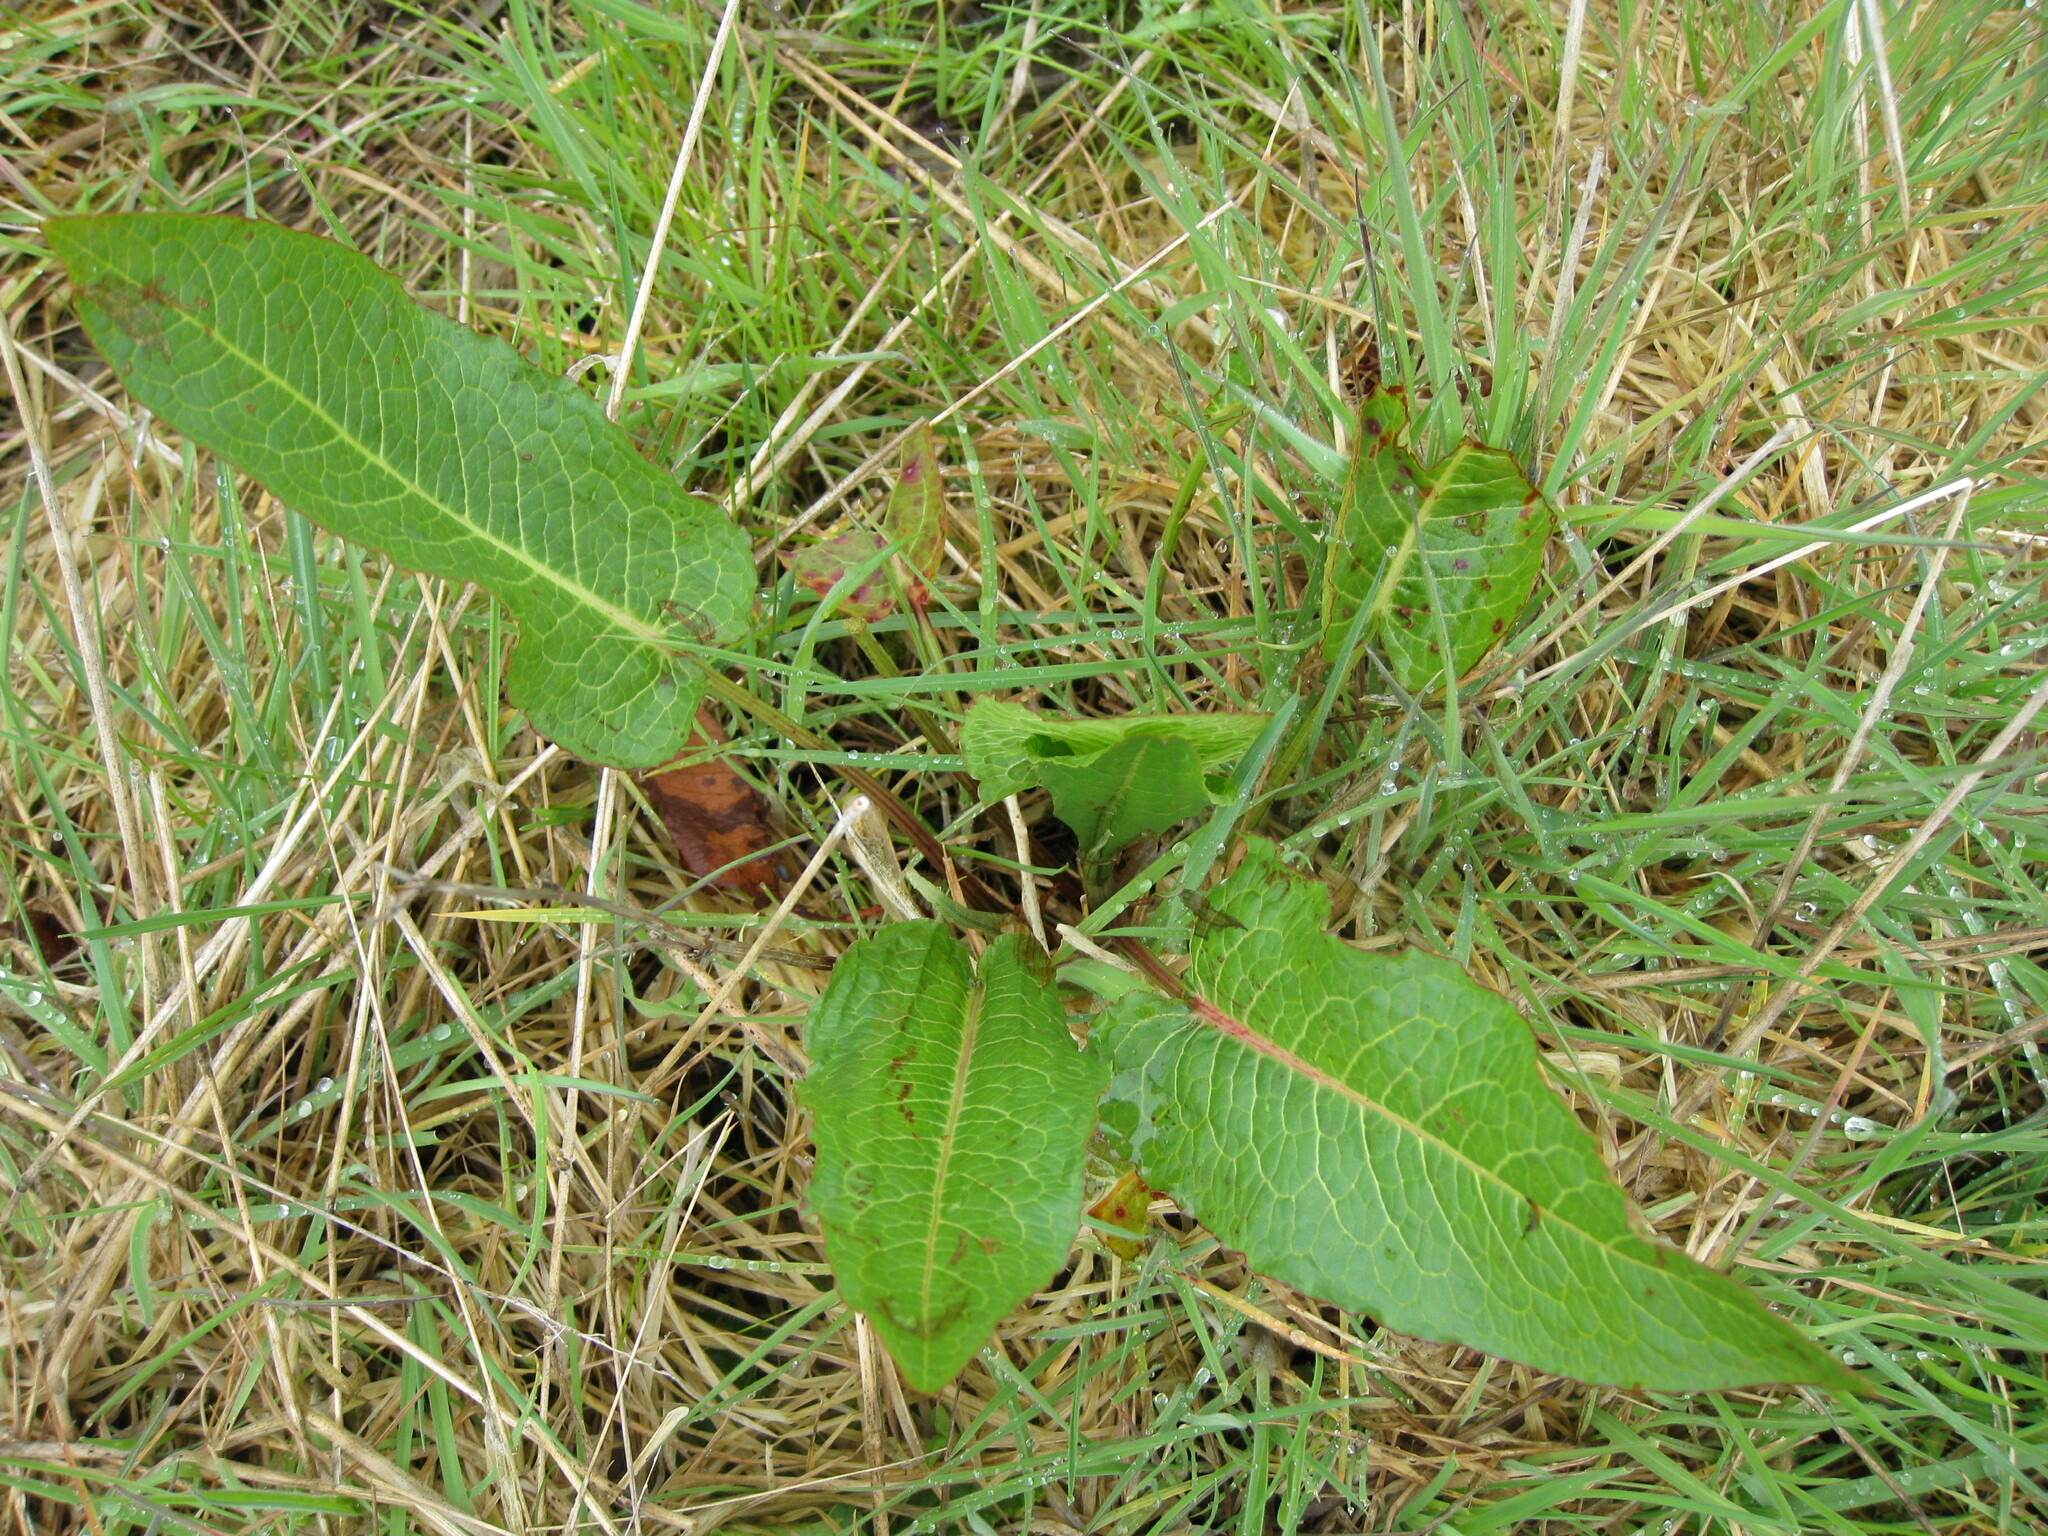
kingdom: Plantae
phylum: Tracheophyta
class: Magnoliopsida
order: Caryophyllales
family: Polygonaceae
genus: Rumex
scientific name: Rumex obtusifolius
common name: Bitter dock
